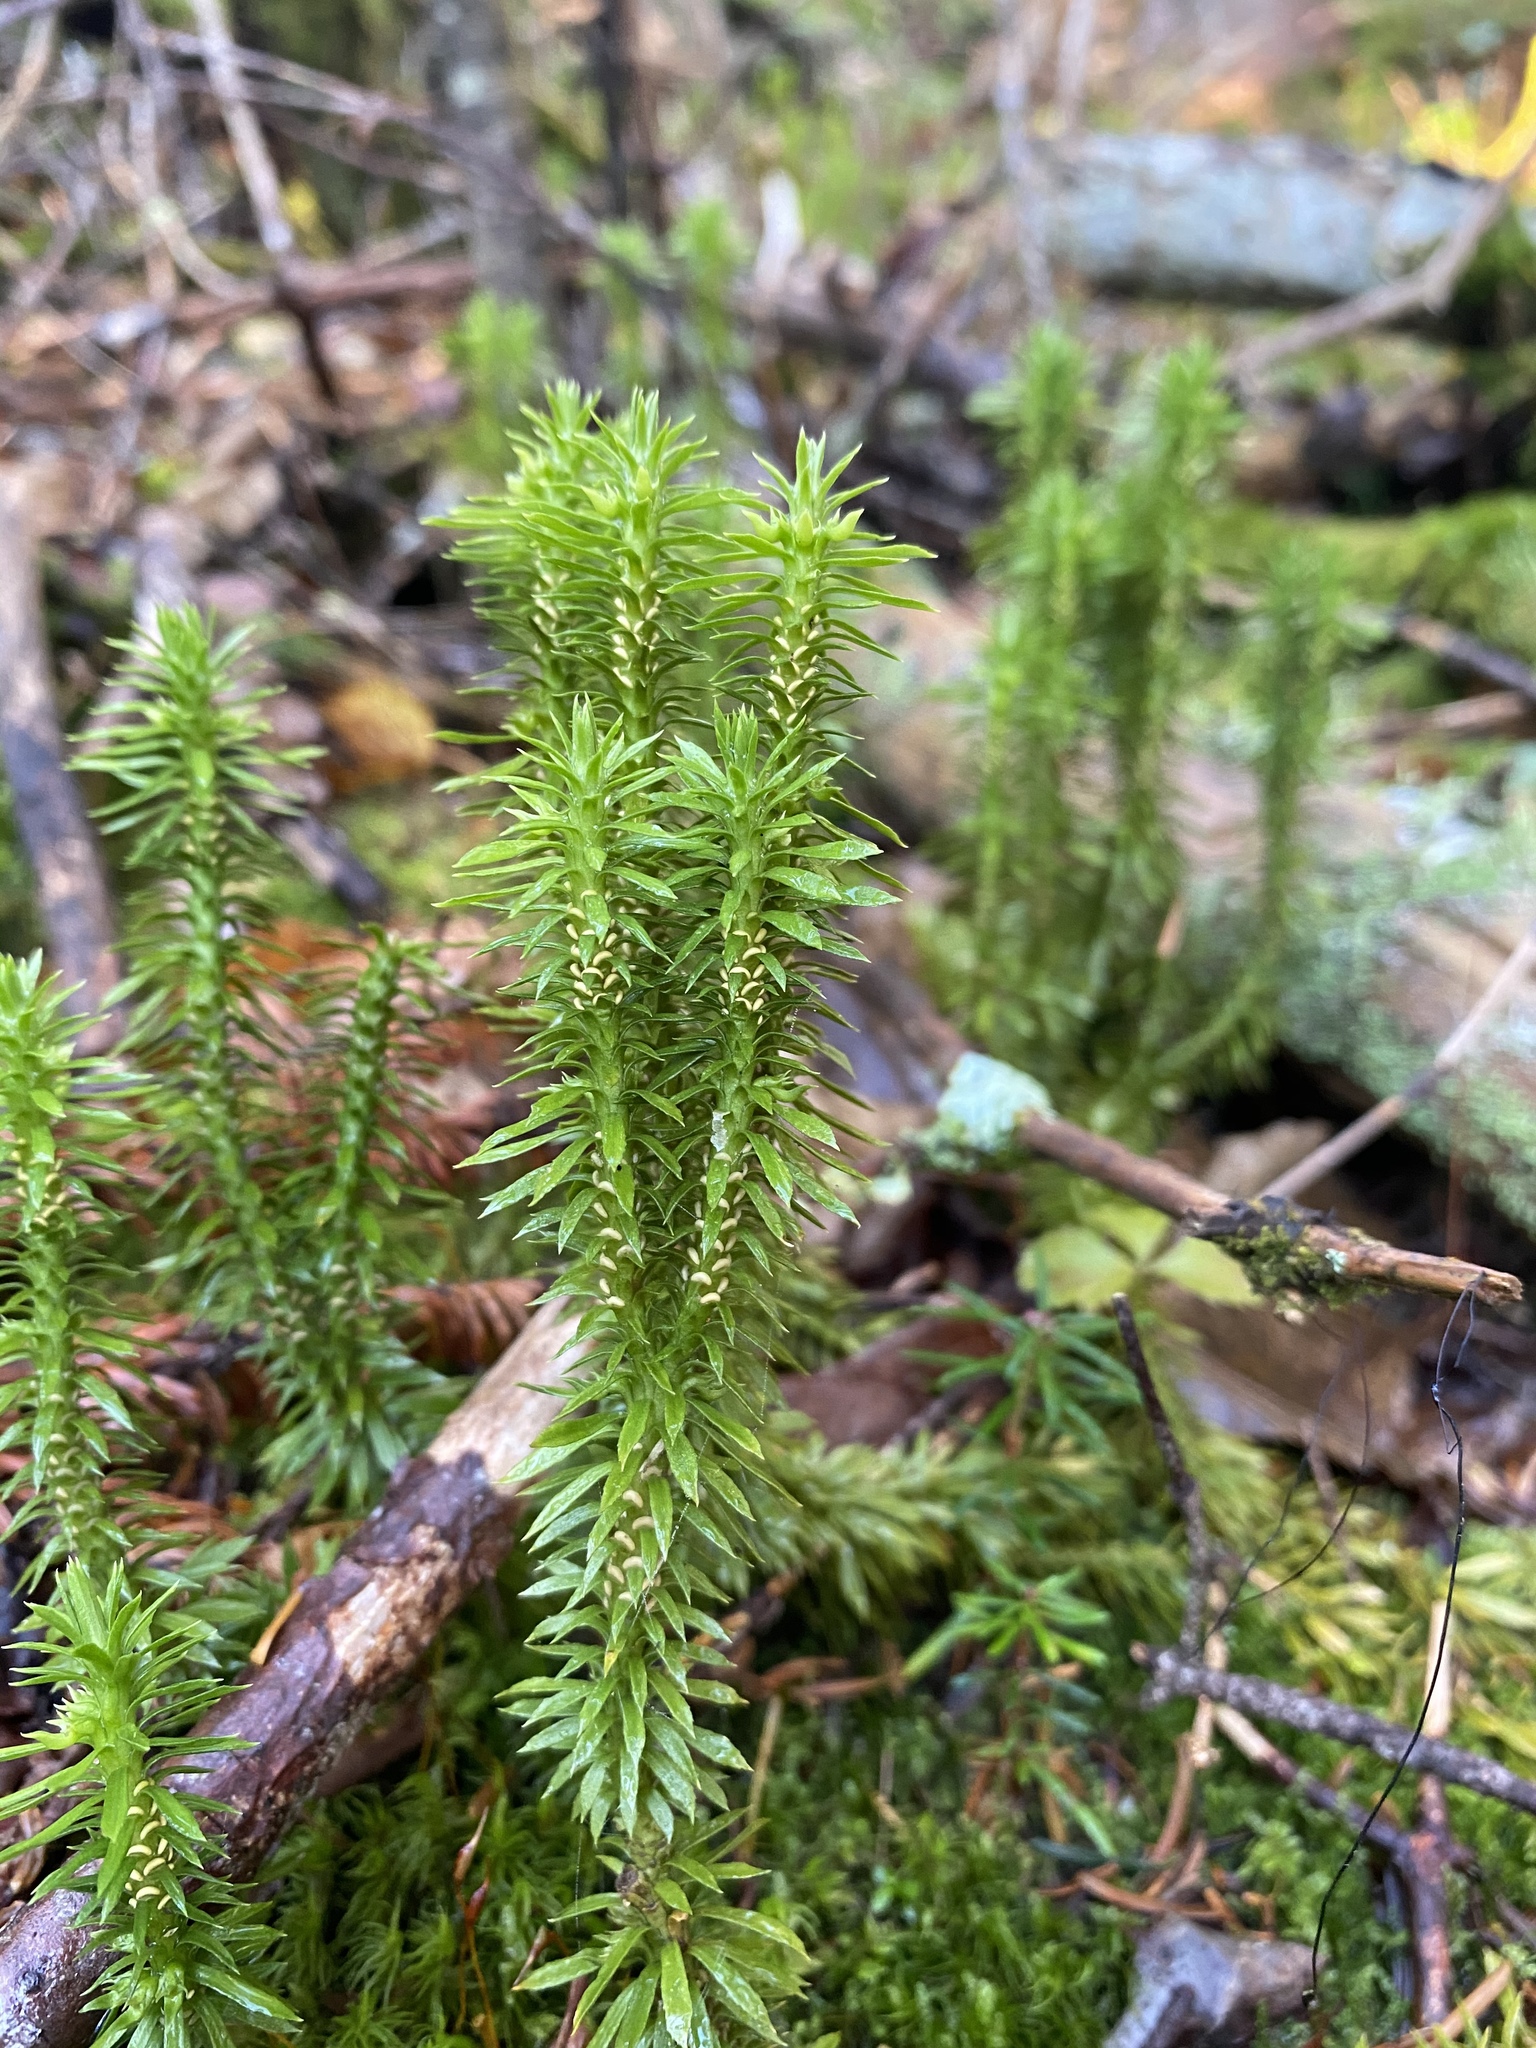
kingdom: Plantae
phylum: Tracheophyta
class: Lycopodiopsida
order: Lycopodiales
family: Lycopodiaceae
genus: Huperzia
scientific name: Huperzia lucidula
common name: Shining clubmoss
